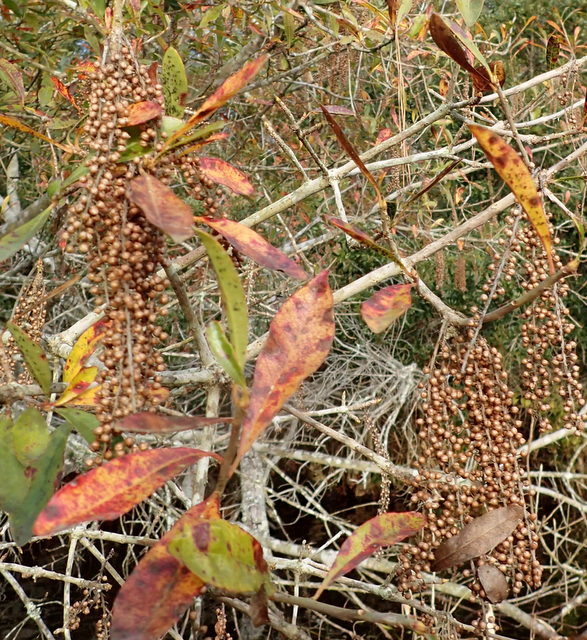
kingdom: Plantae
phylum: Tracheophyta
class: Magnoliopsida
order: Ericales
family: Cyrillaceae
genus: Cyrilla
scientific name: Cyrilla racemiflora
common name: Black titi
